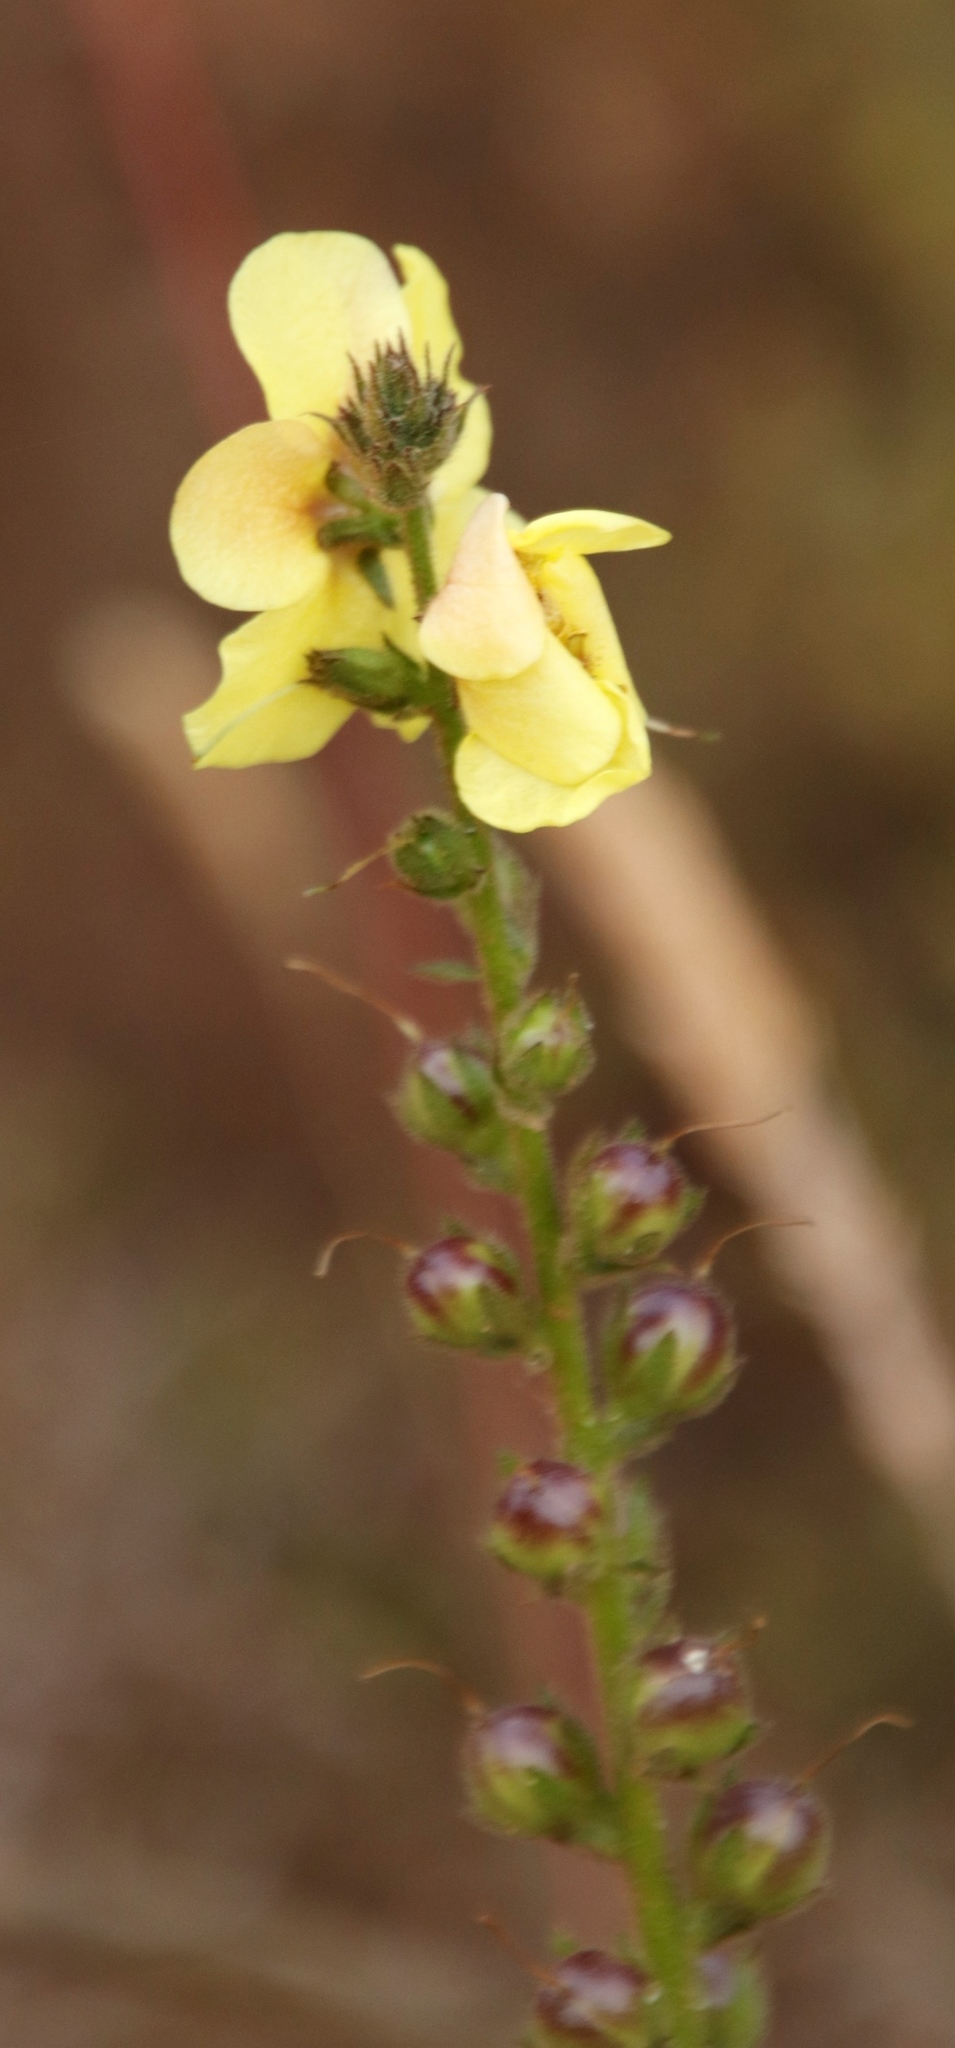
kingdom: Plantae
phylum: Tracheophyta
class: Magnoliopsida
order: Lamiales
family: Scrophulariaceae
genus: Verbascum
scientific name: Verbascum virgatum
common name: Twiggy mullein
